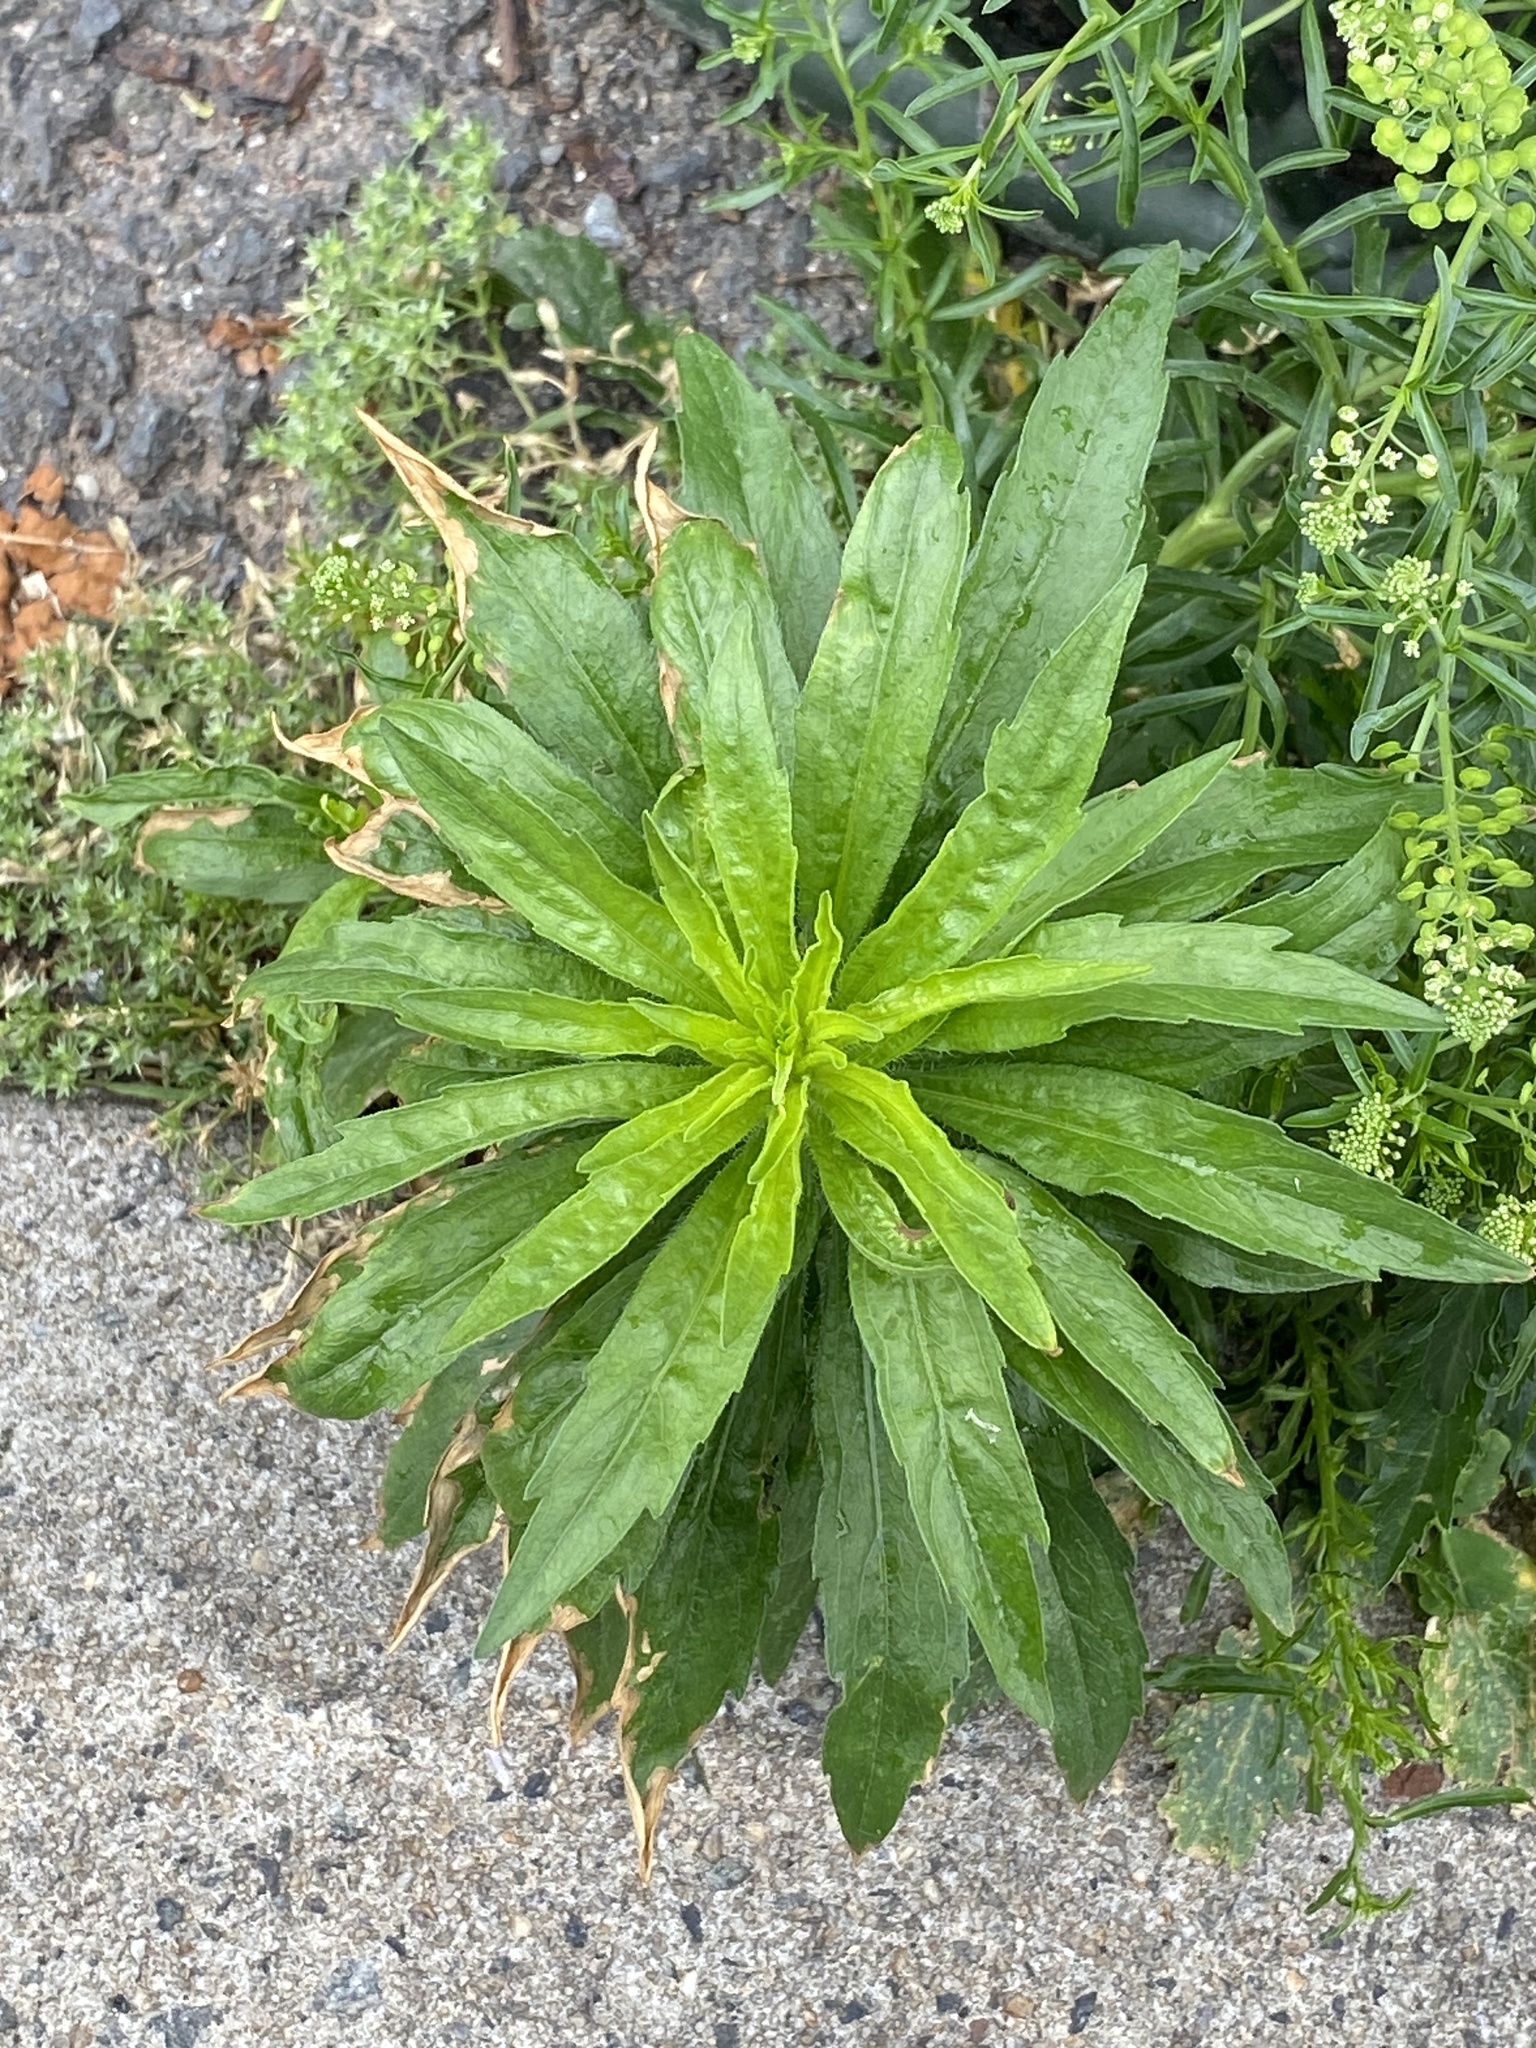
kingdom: Plantae
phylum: Tracheophyta
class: Magnoliopsida
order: Asterales
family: Asteraceae
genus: Erigeron
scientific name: Erigeron canadensis
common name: Canadian fleabane
